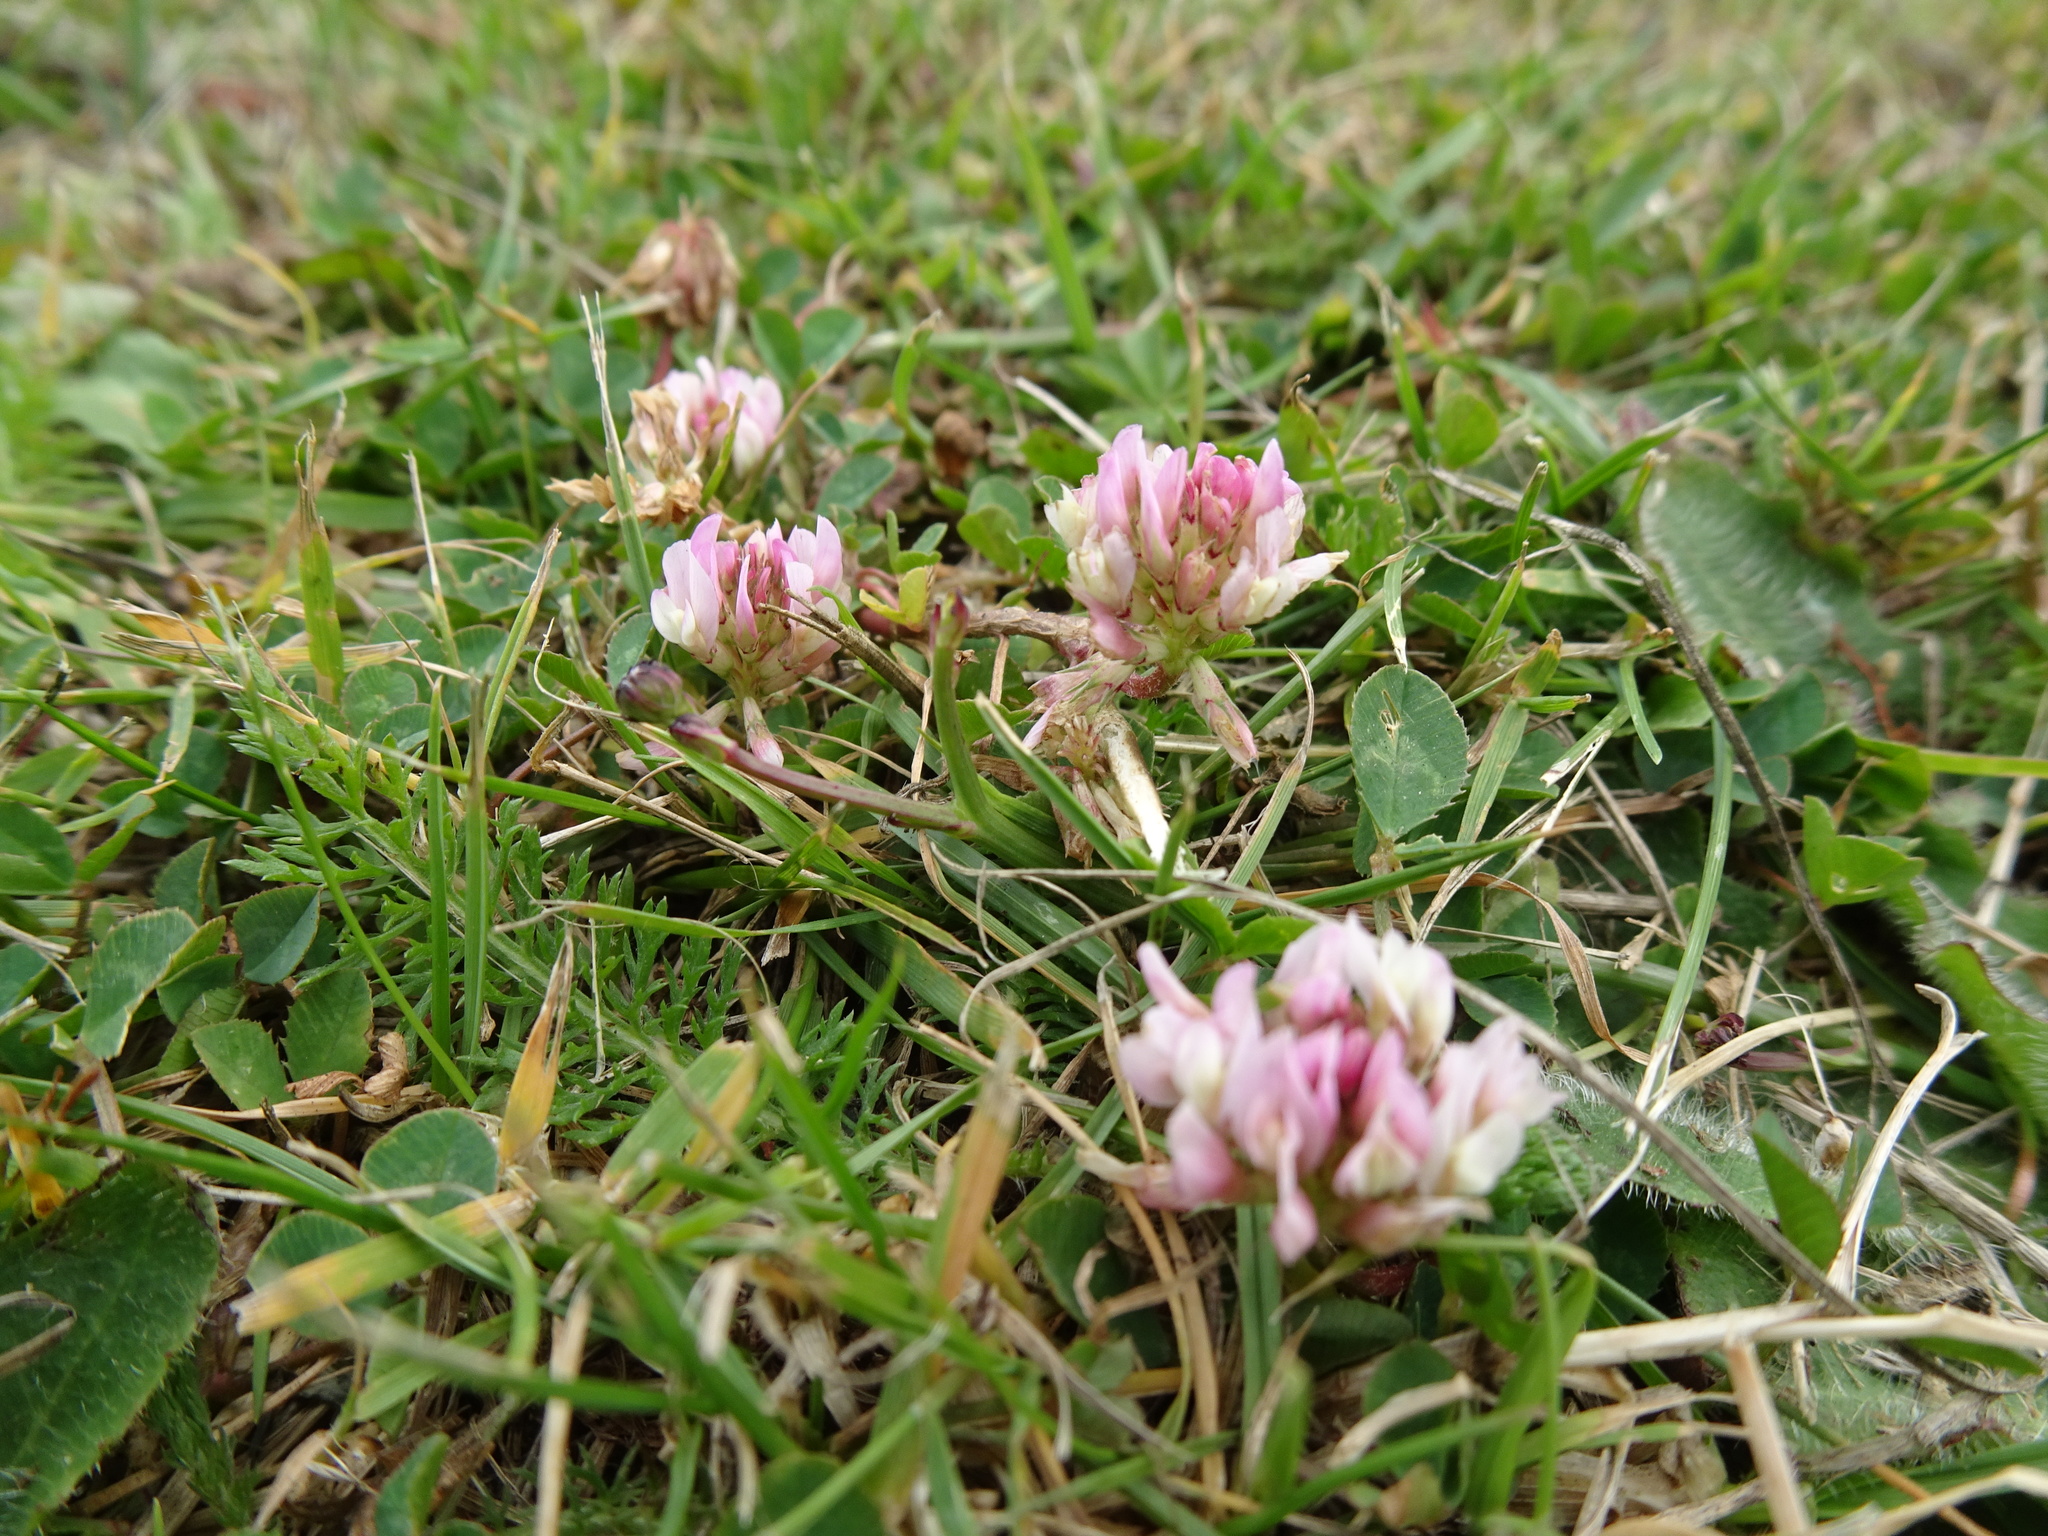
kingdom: Plantae
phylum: Tracheophyta
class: Magnoliopsida
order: Fabales
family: Fabaceae
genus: Trifolium
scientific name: Trifolium repens
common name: White clover
